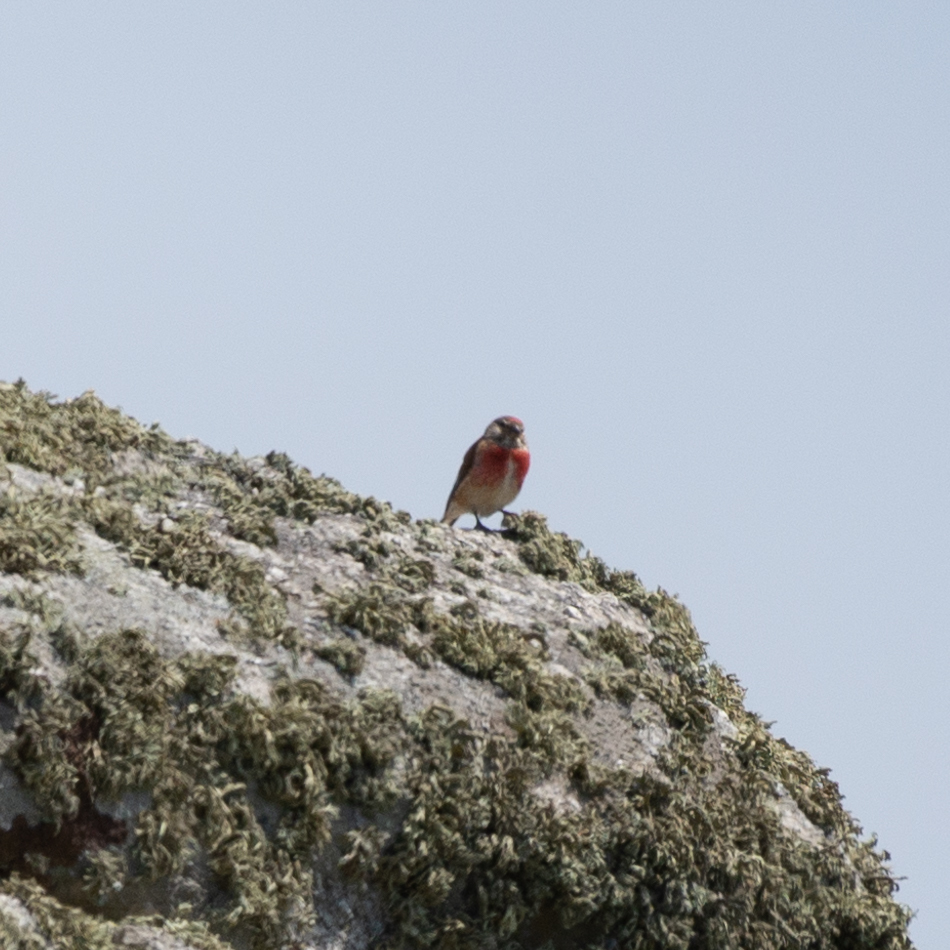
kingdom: Animalia
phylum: Chordata
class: Aves
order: Passeriformes
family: Fringillidae
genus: Linaria
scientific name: Linaria cannabina
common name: Common linnet
